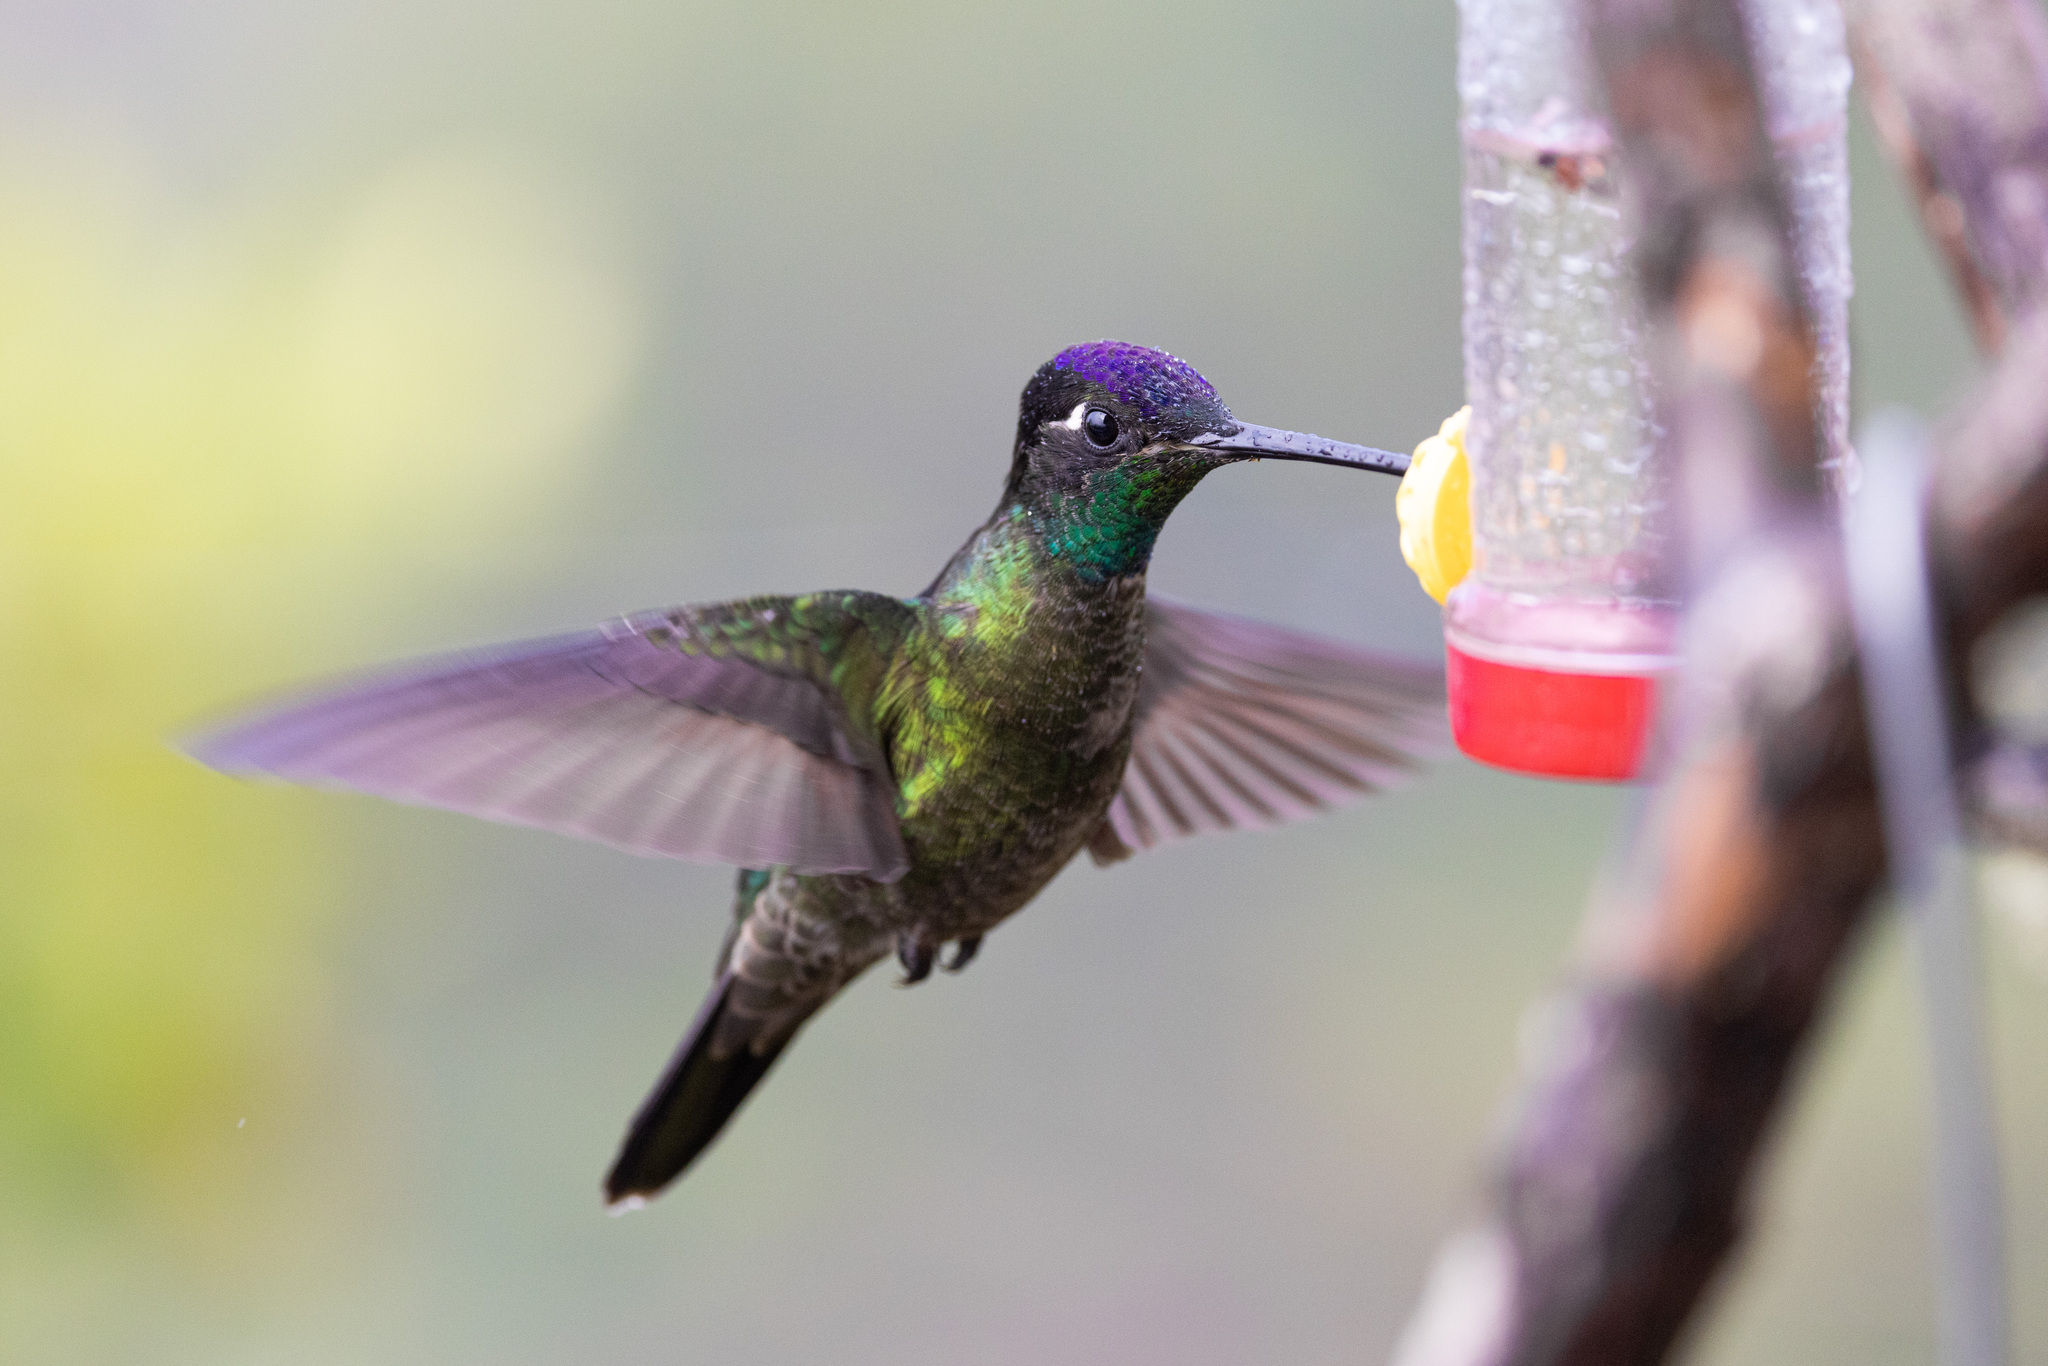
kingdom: Animalia
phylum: Chordata
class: Aves
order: Apodiformes
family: Trochilidae
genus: Eugenes
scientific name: Eugenes spectabilis
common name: Talamanca hummingbird
